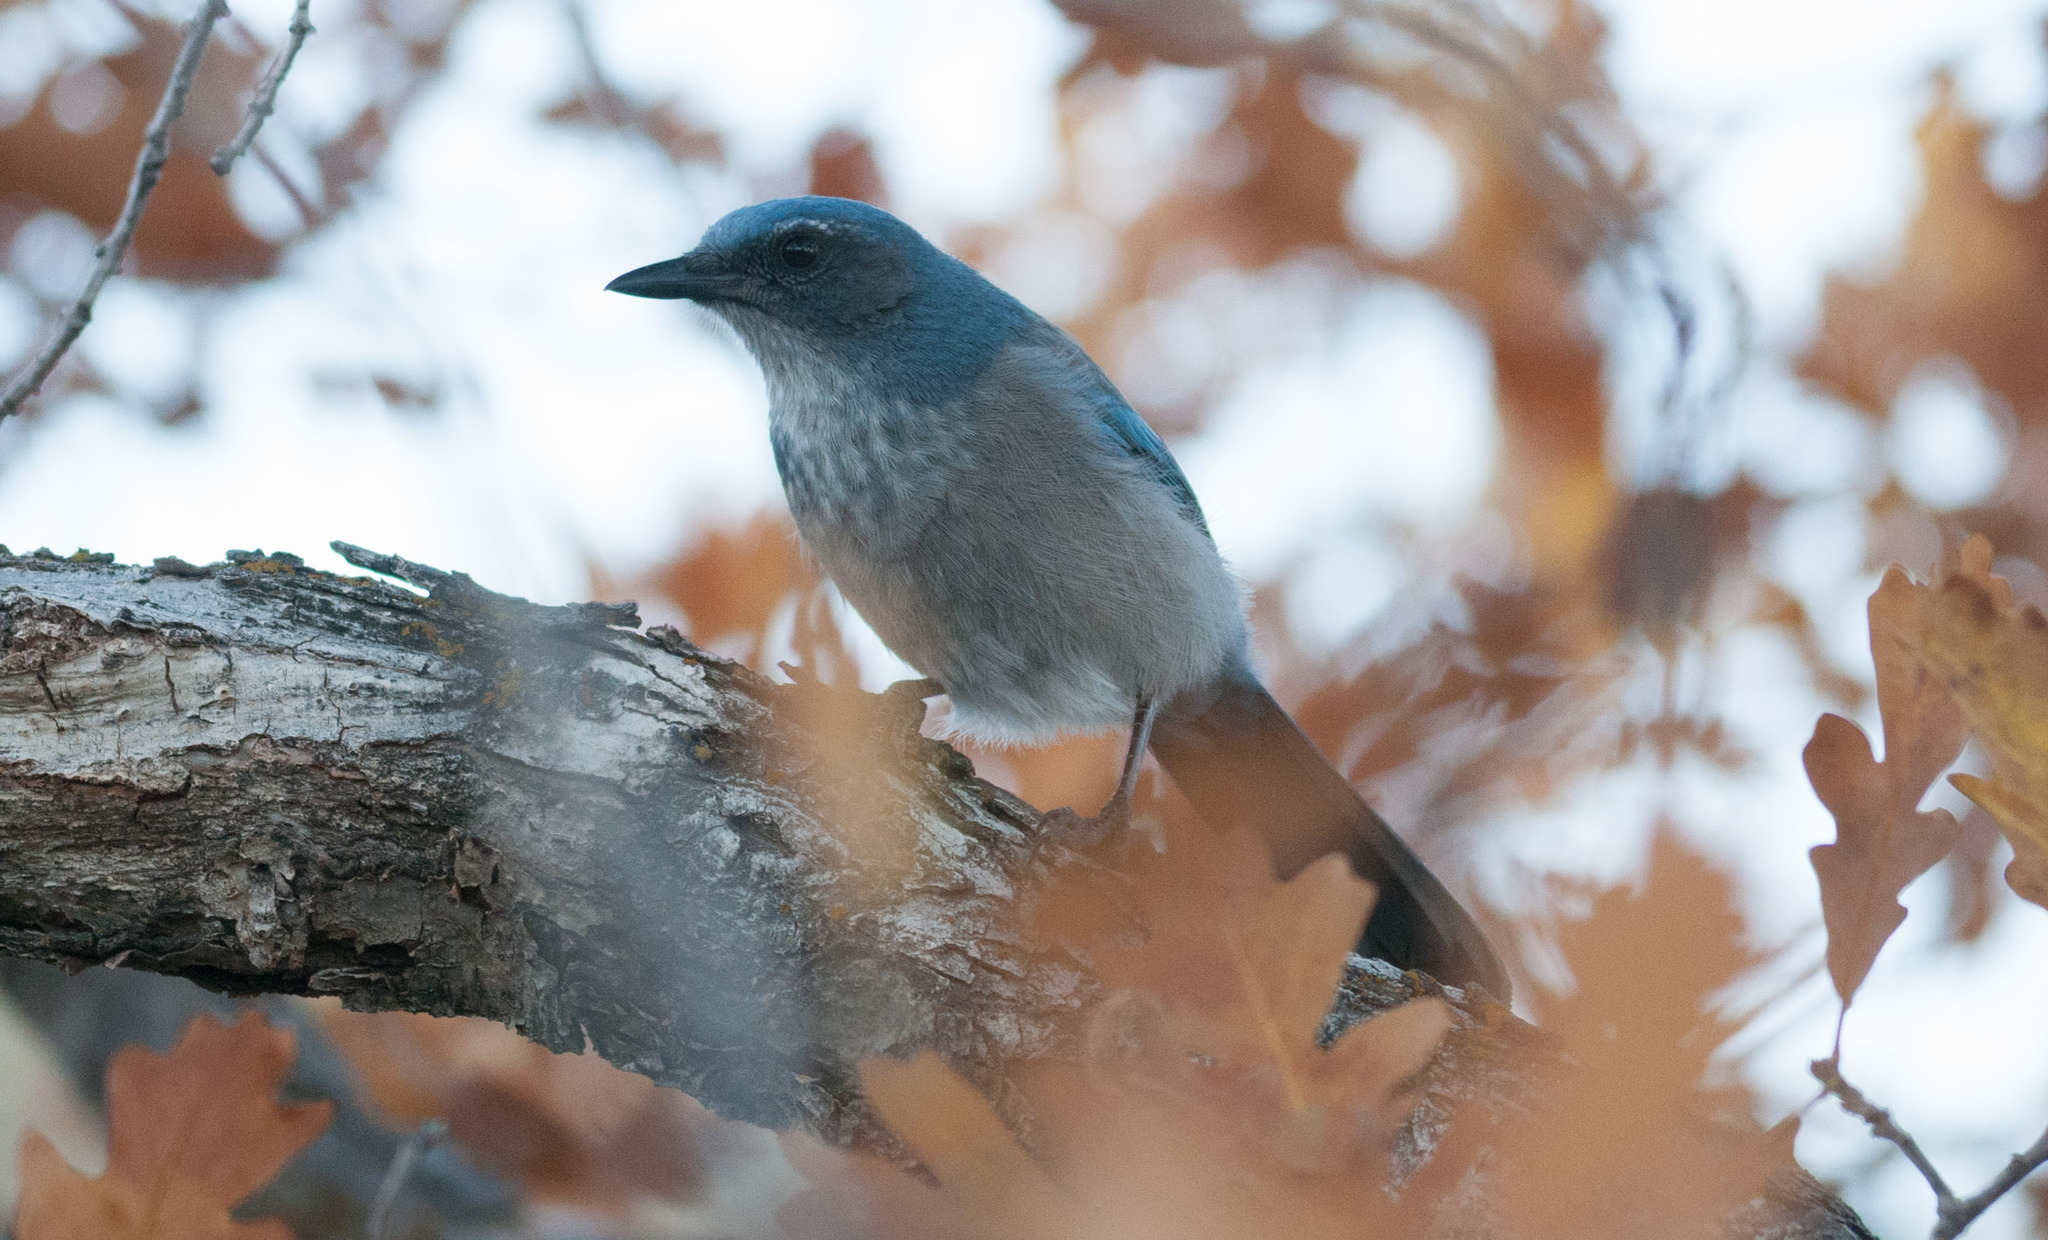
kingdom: Animalia
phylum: Chordata
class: Aves
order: Passeriformes
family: Corvidae
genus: Aphelocoma
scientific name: Aphelocoma woodhouseii
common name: Woodhouse's scrub-jay
